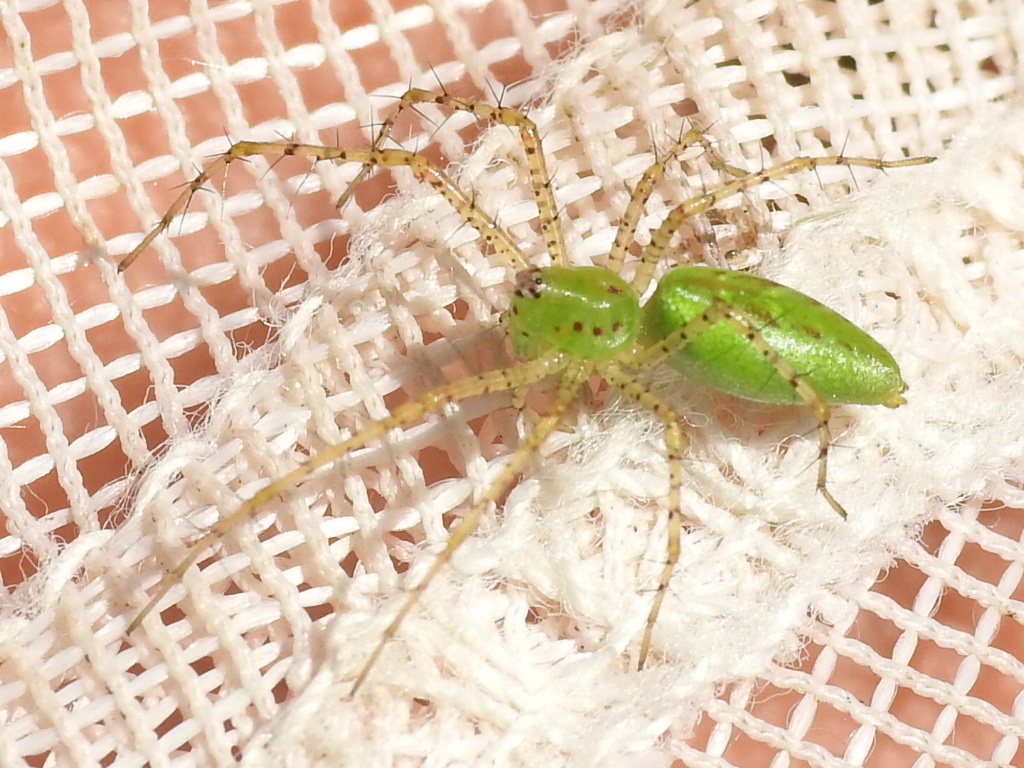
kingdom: Animalia
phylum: Arthropoda
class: Arachnida
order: Araneae
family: Oxyopidae
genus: Peucetia
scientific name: Peucetia viridans
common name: Lynx spiders
